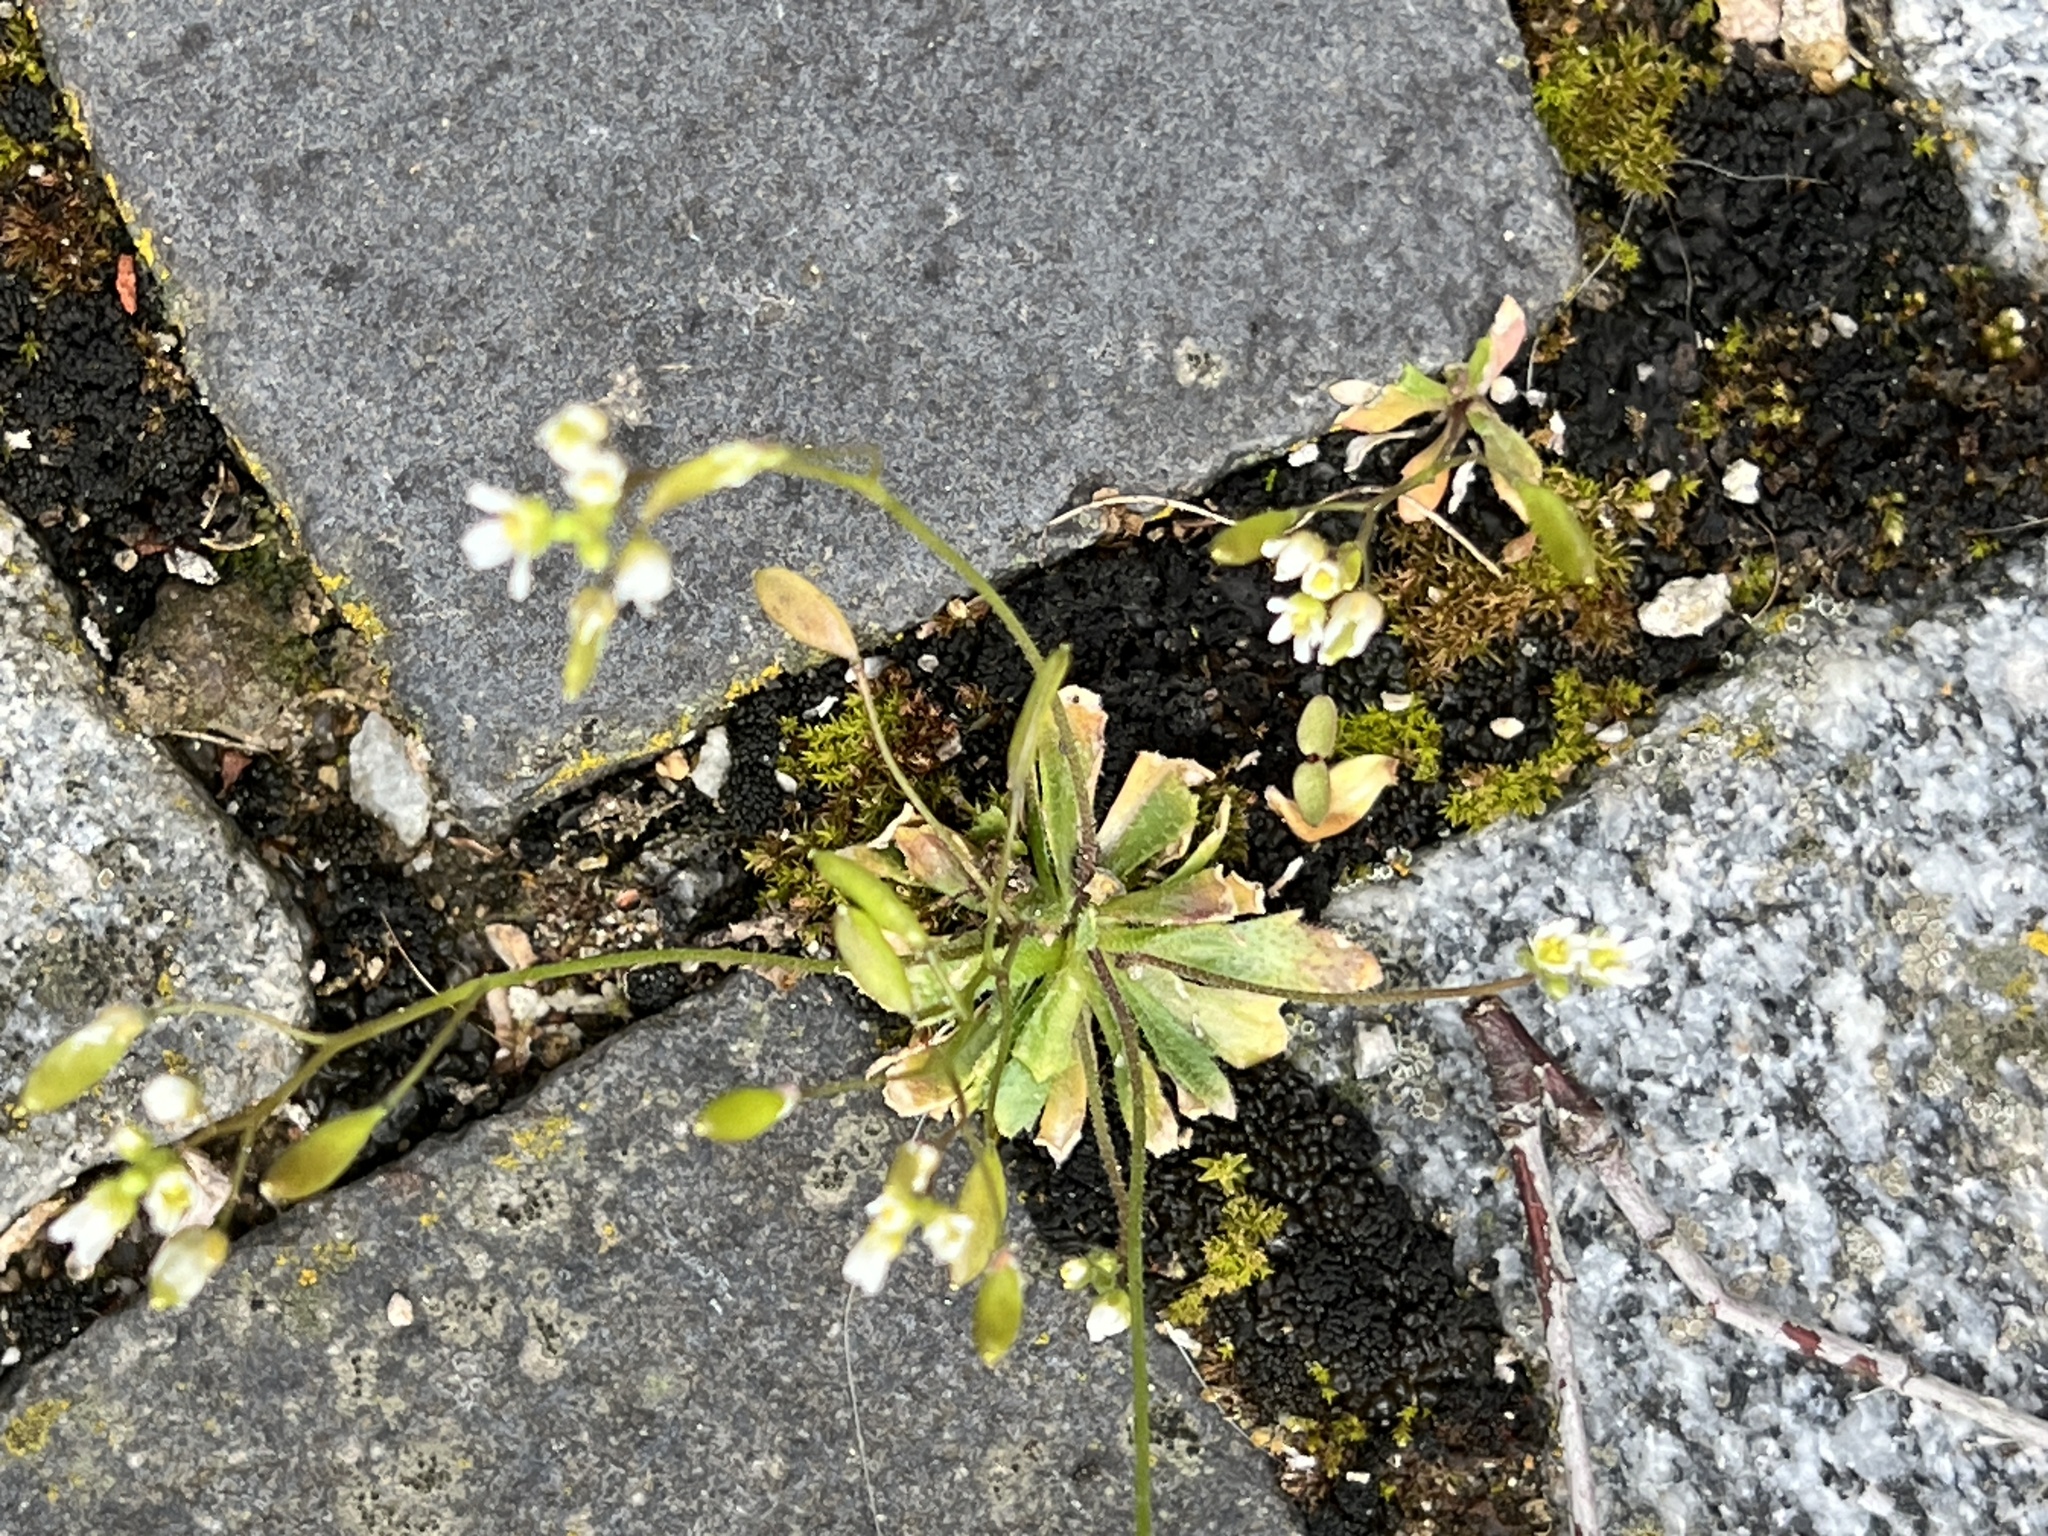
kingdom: Plantae
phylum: Tracheophyta
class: Magnoliopsida
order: Brassicales
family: Brassicaceae
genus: Draba
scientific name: Draba verna
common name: Spring draba
